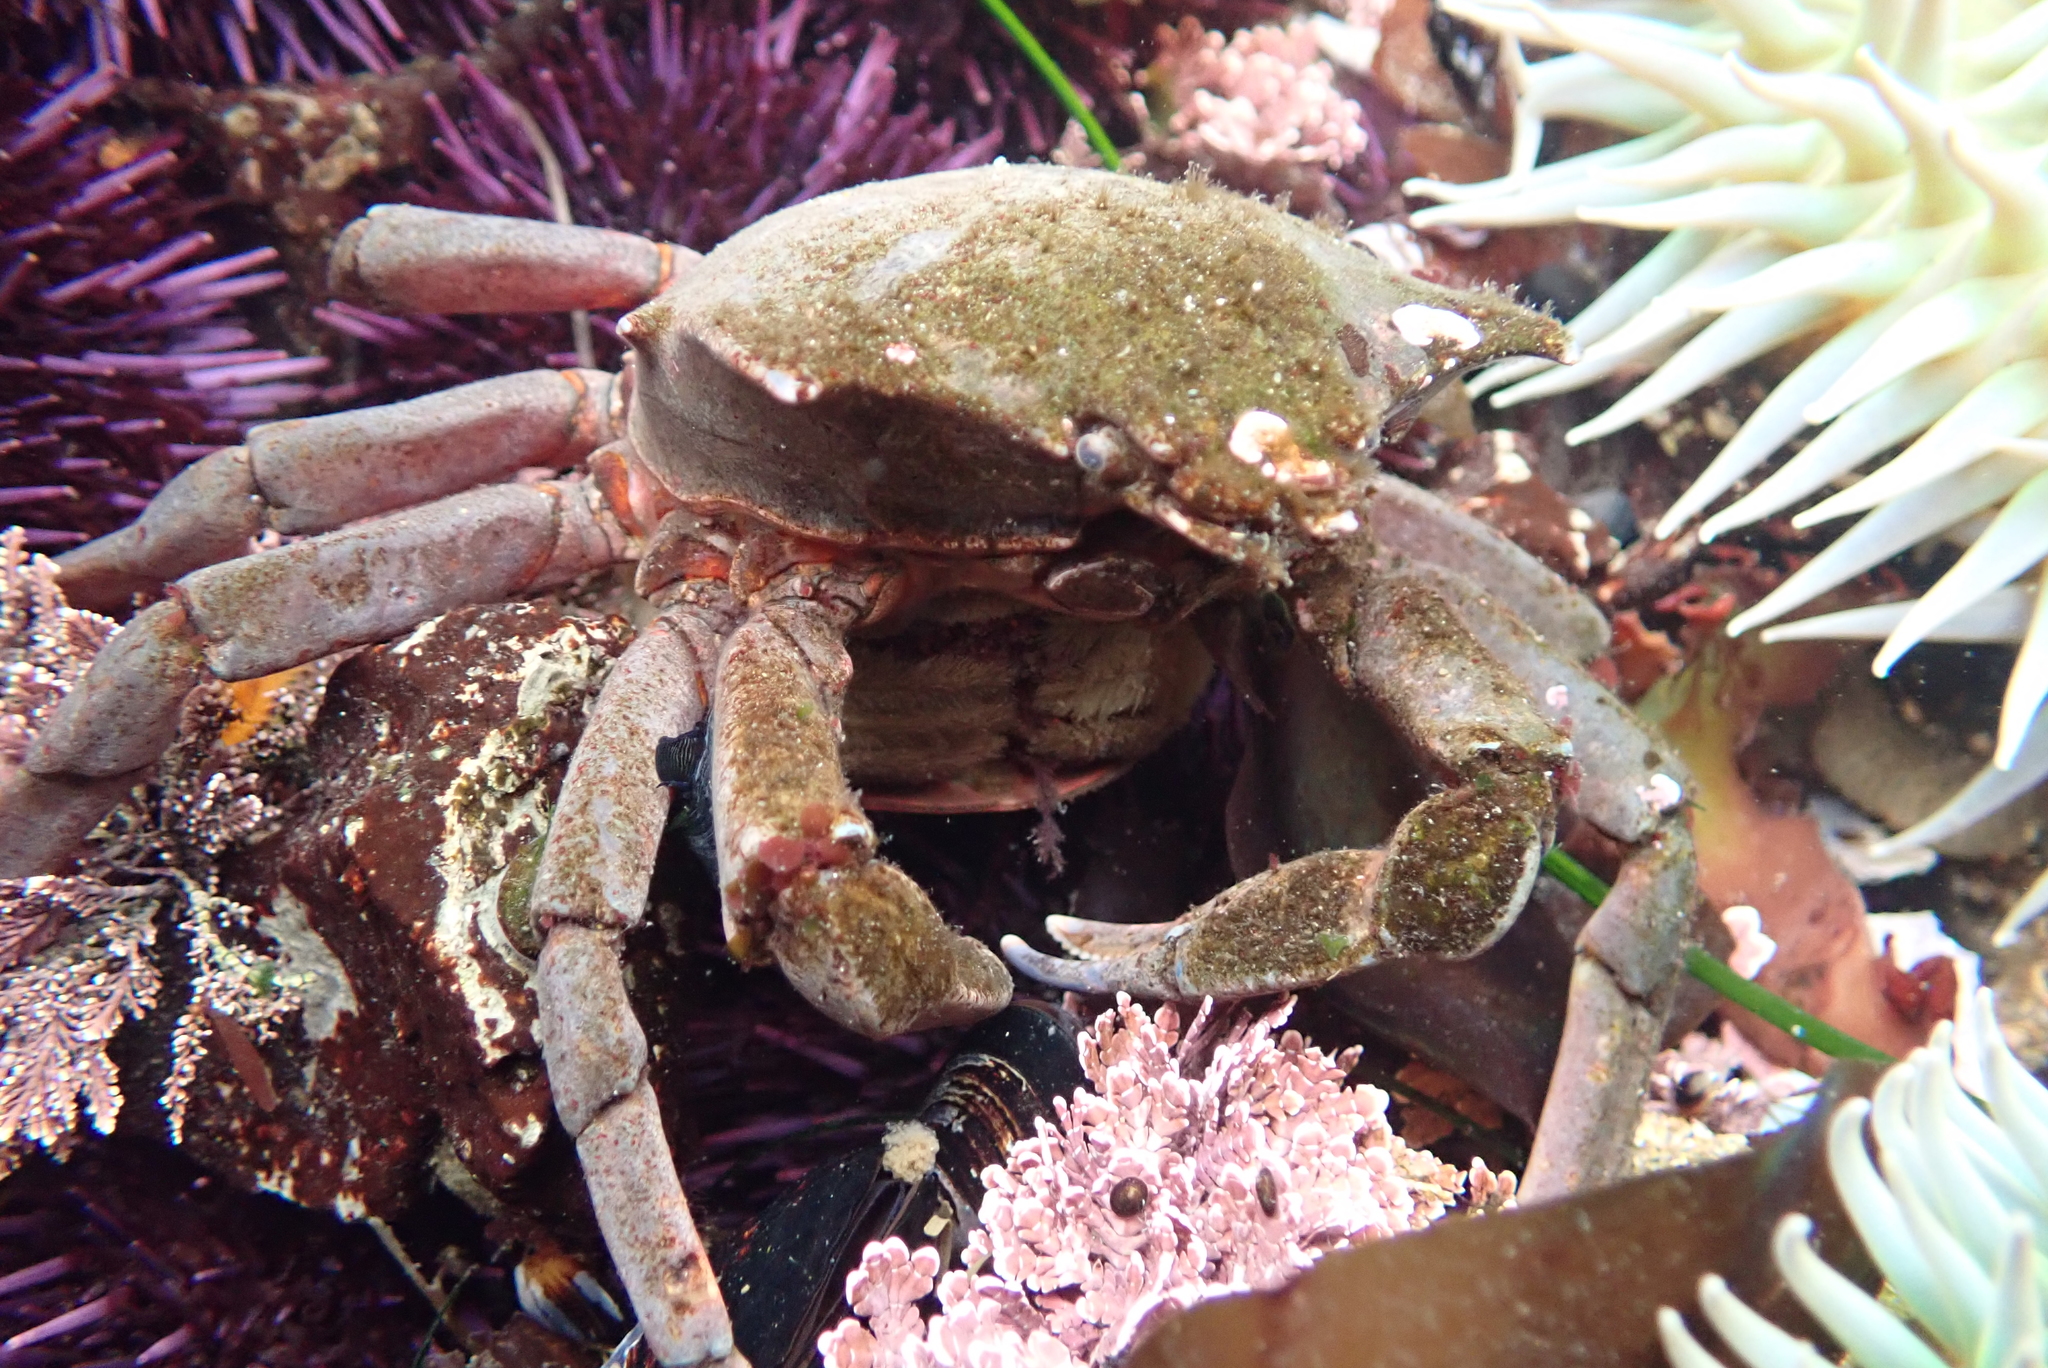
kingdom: Animalia
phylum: Arthropoda
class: Malacostraca
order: Decapoda
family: Epialtidae
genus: Pugettia
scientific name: Pugettia producta
